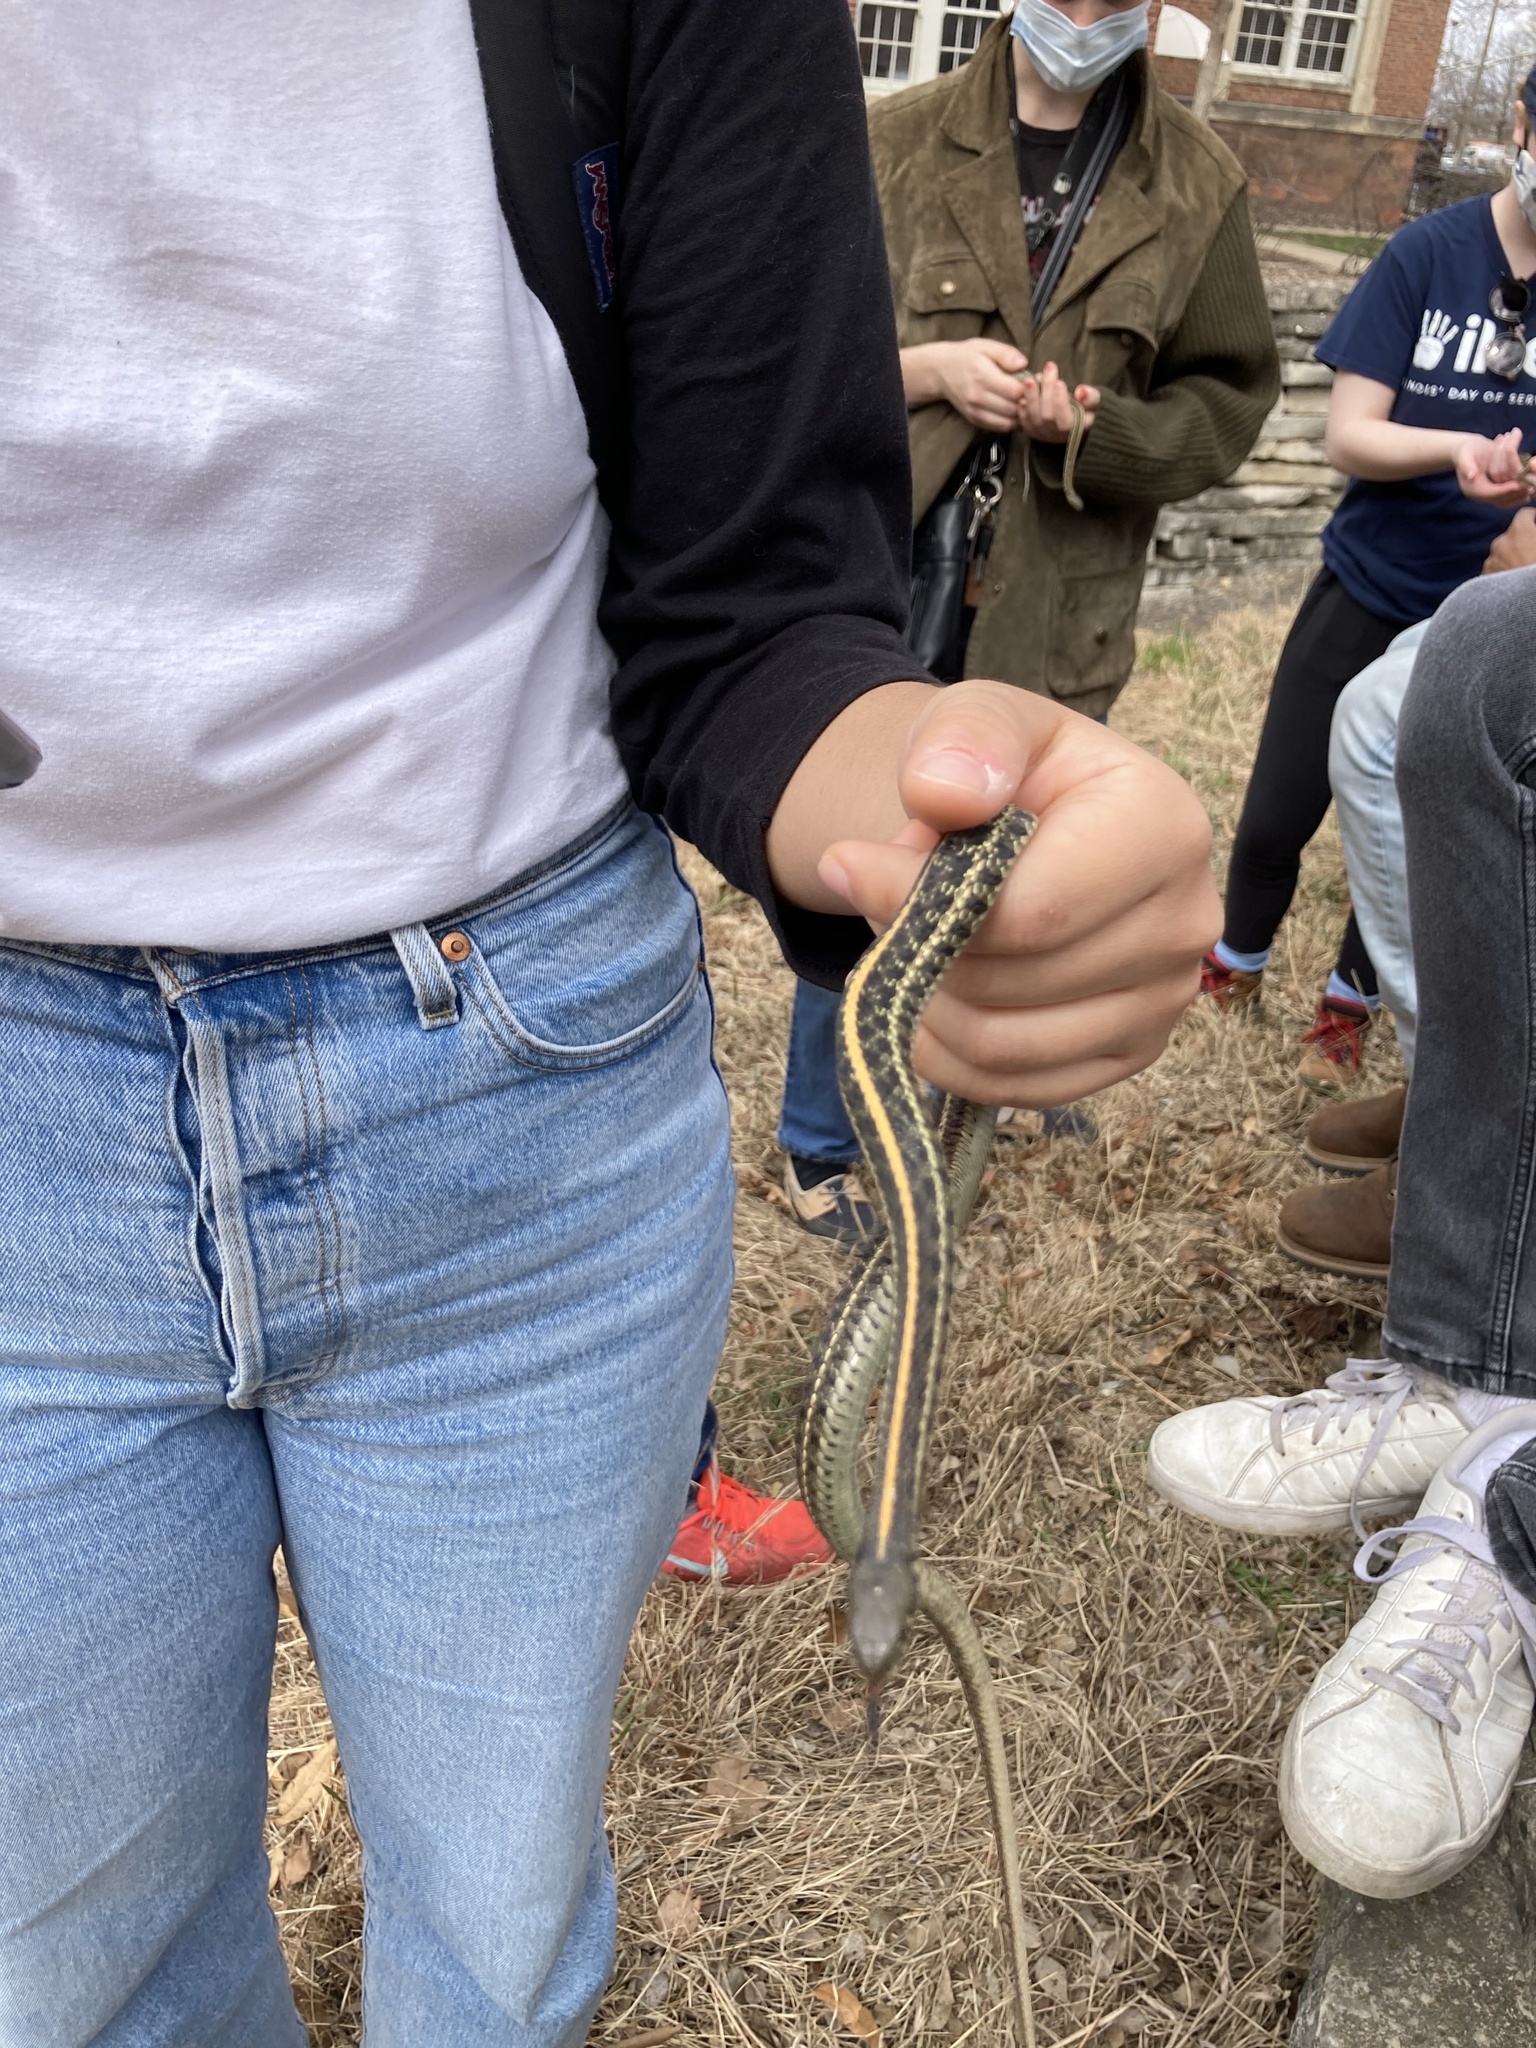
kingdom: Animalia
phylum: Chordata
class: Squamata
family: Colubridae
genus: Thamnophis
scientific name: Thamnophis radix
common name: Plains garter snake
